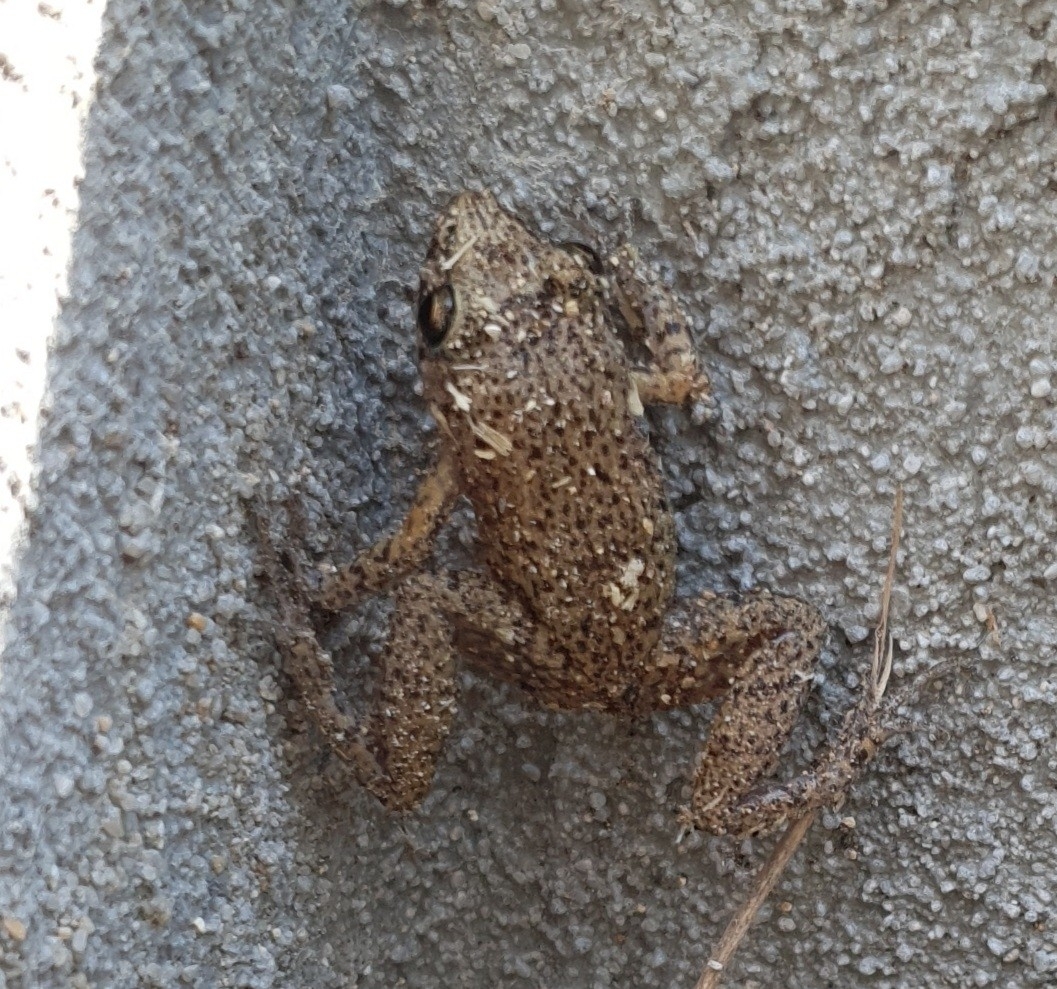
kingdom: Animalia
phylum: Chordata
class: Amphibia
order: Anura
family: Eleutherodactylidae
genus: Eleutherodactylus
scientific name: Eleutherodactylus planirostris
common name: Greenhouse frog
